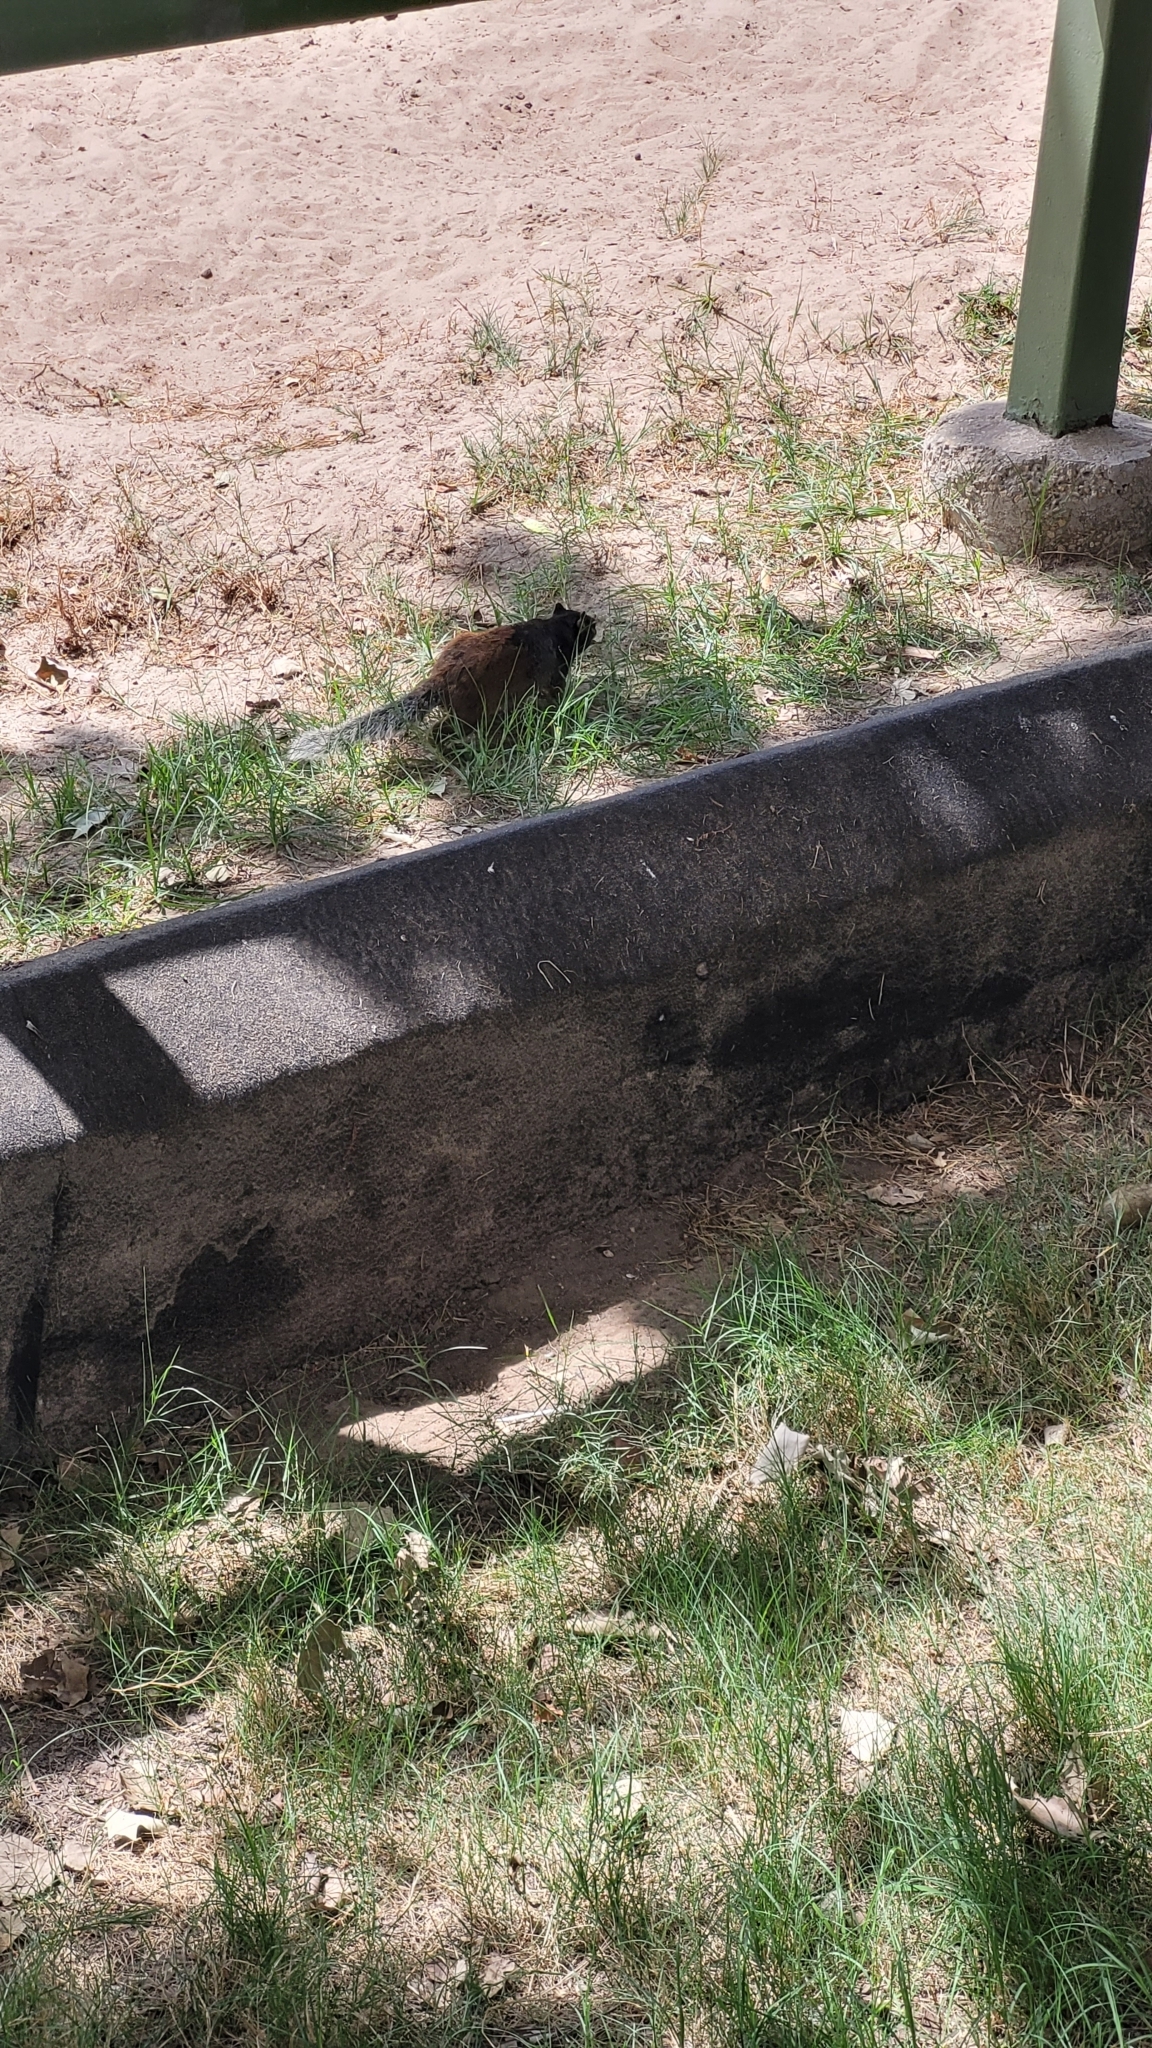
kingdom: Animalia
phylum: Chordata
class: Mammalia
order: Rodentia
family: Sciuridae
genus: Otospermophilus
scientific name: Otospermophilus variegatus
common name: Rock squirrel
